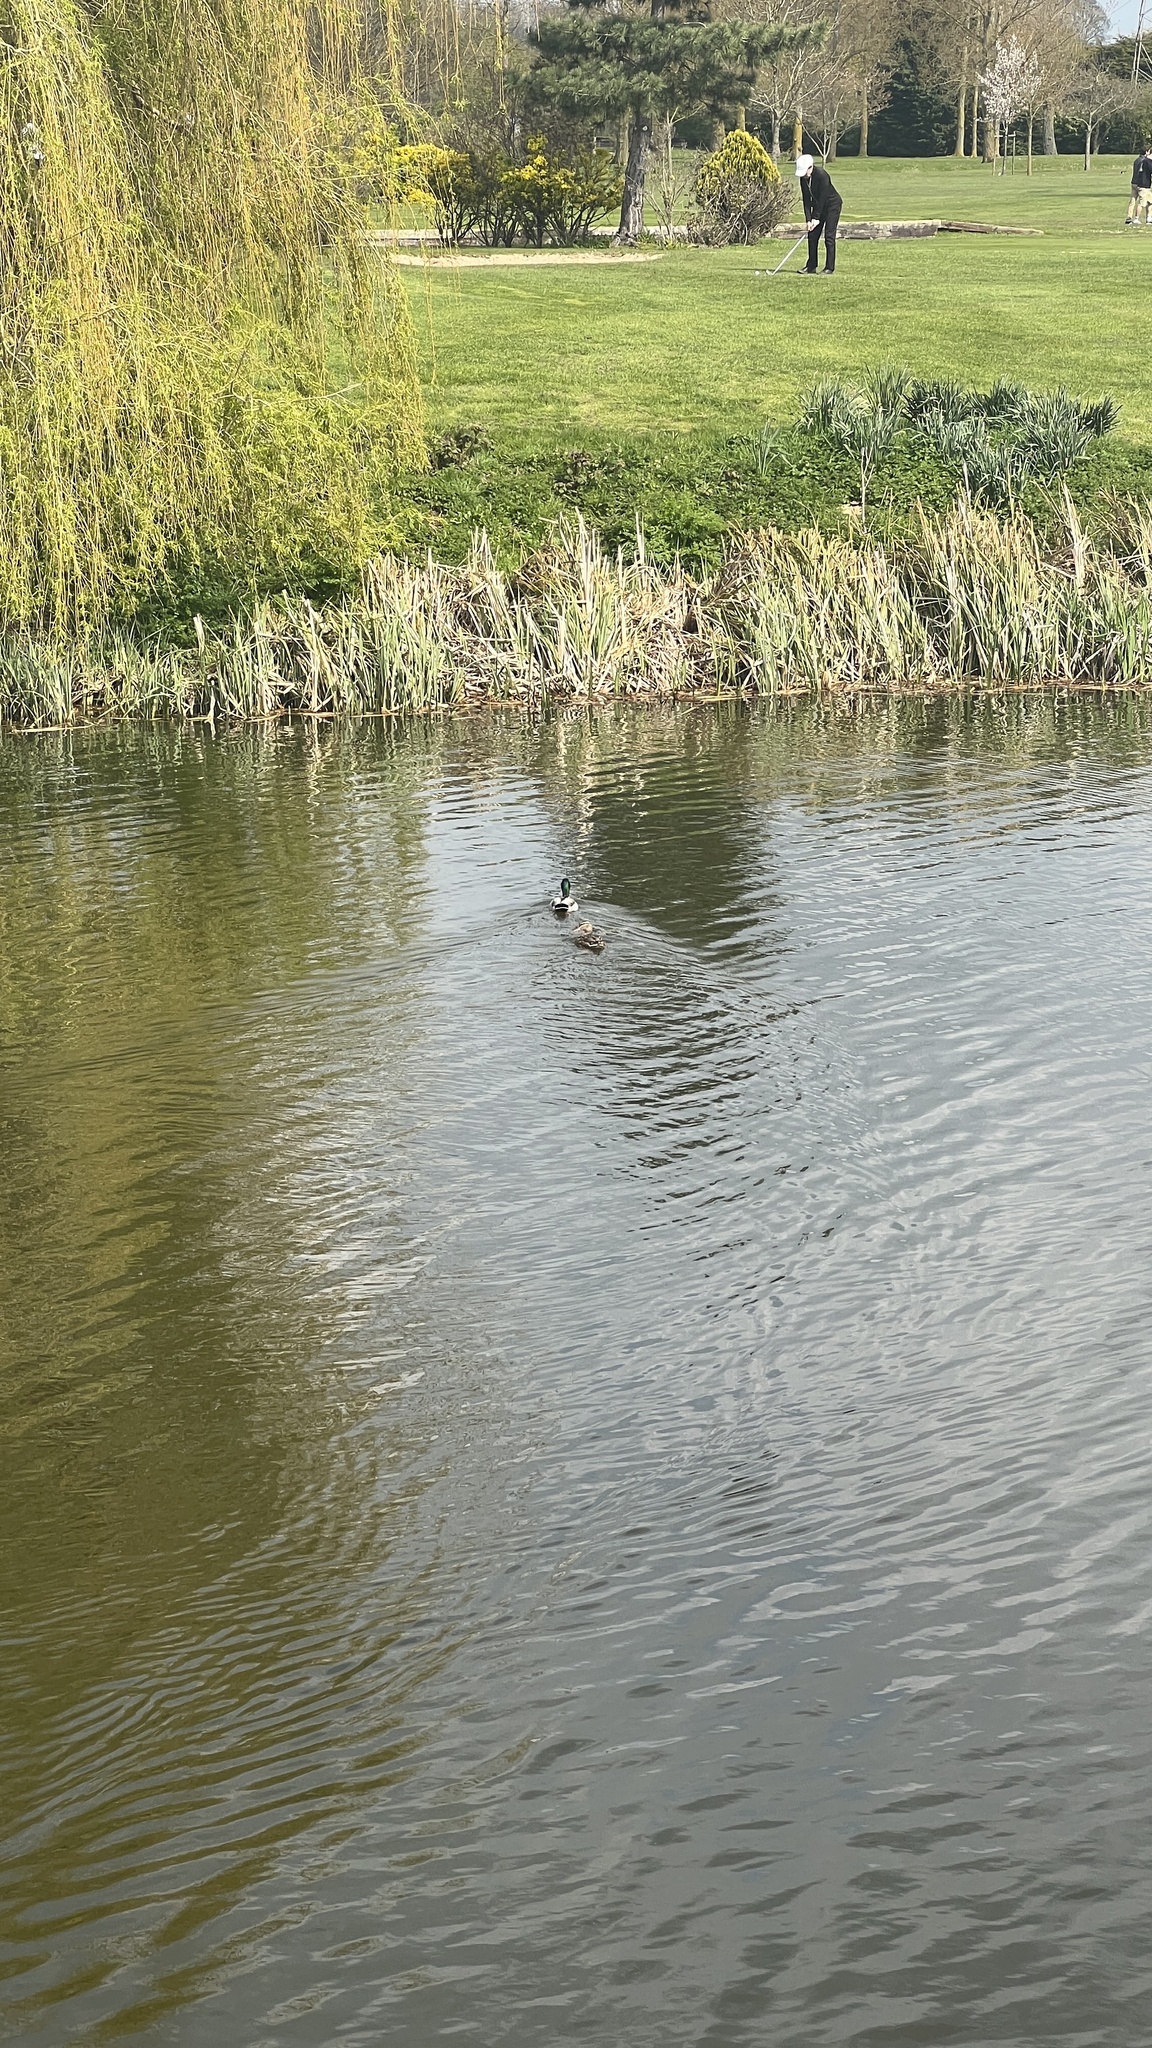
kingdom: Animalia
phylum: Chordata
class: Aves
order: Anseriformes
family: Anatidae
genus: Anas
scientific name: Anas platyrhynchos
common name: Mallard
